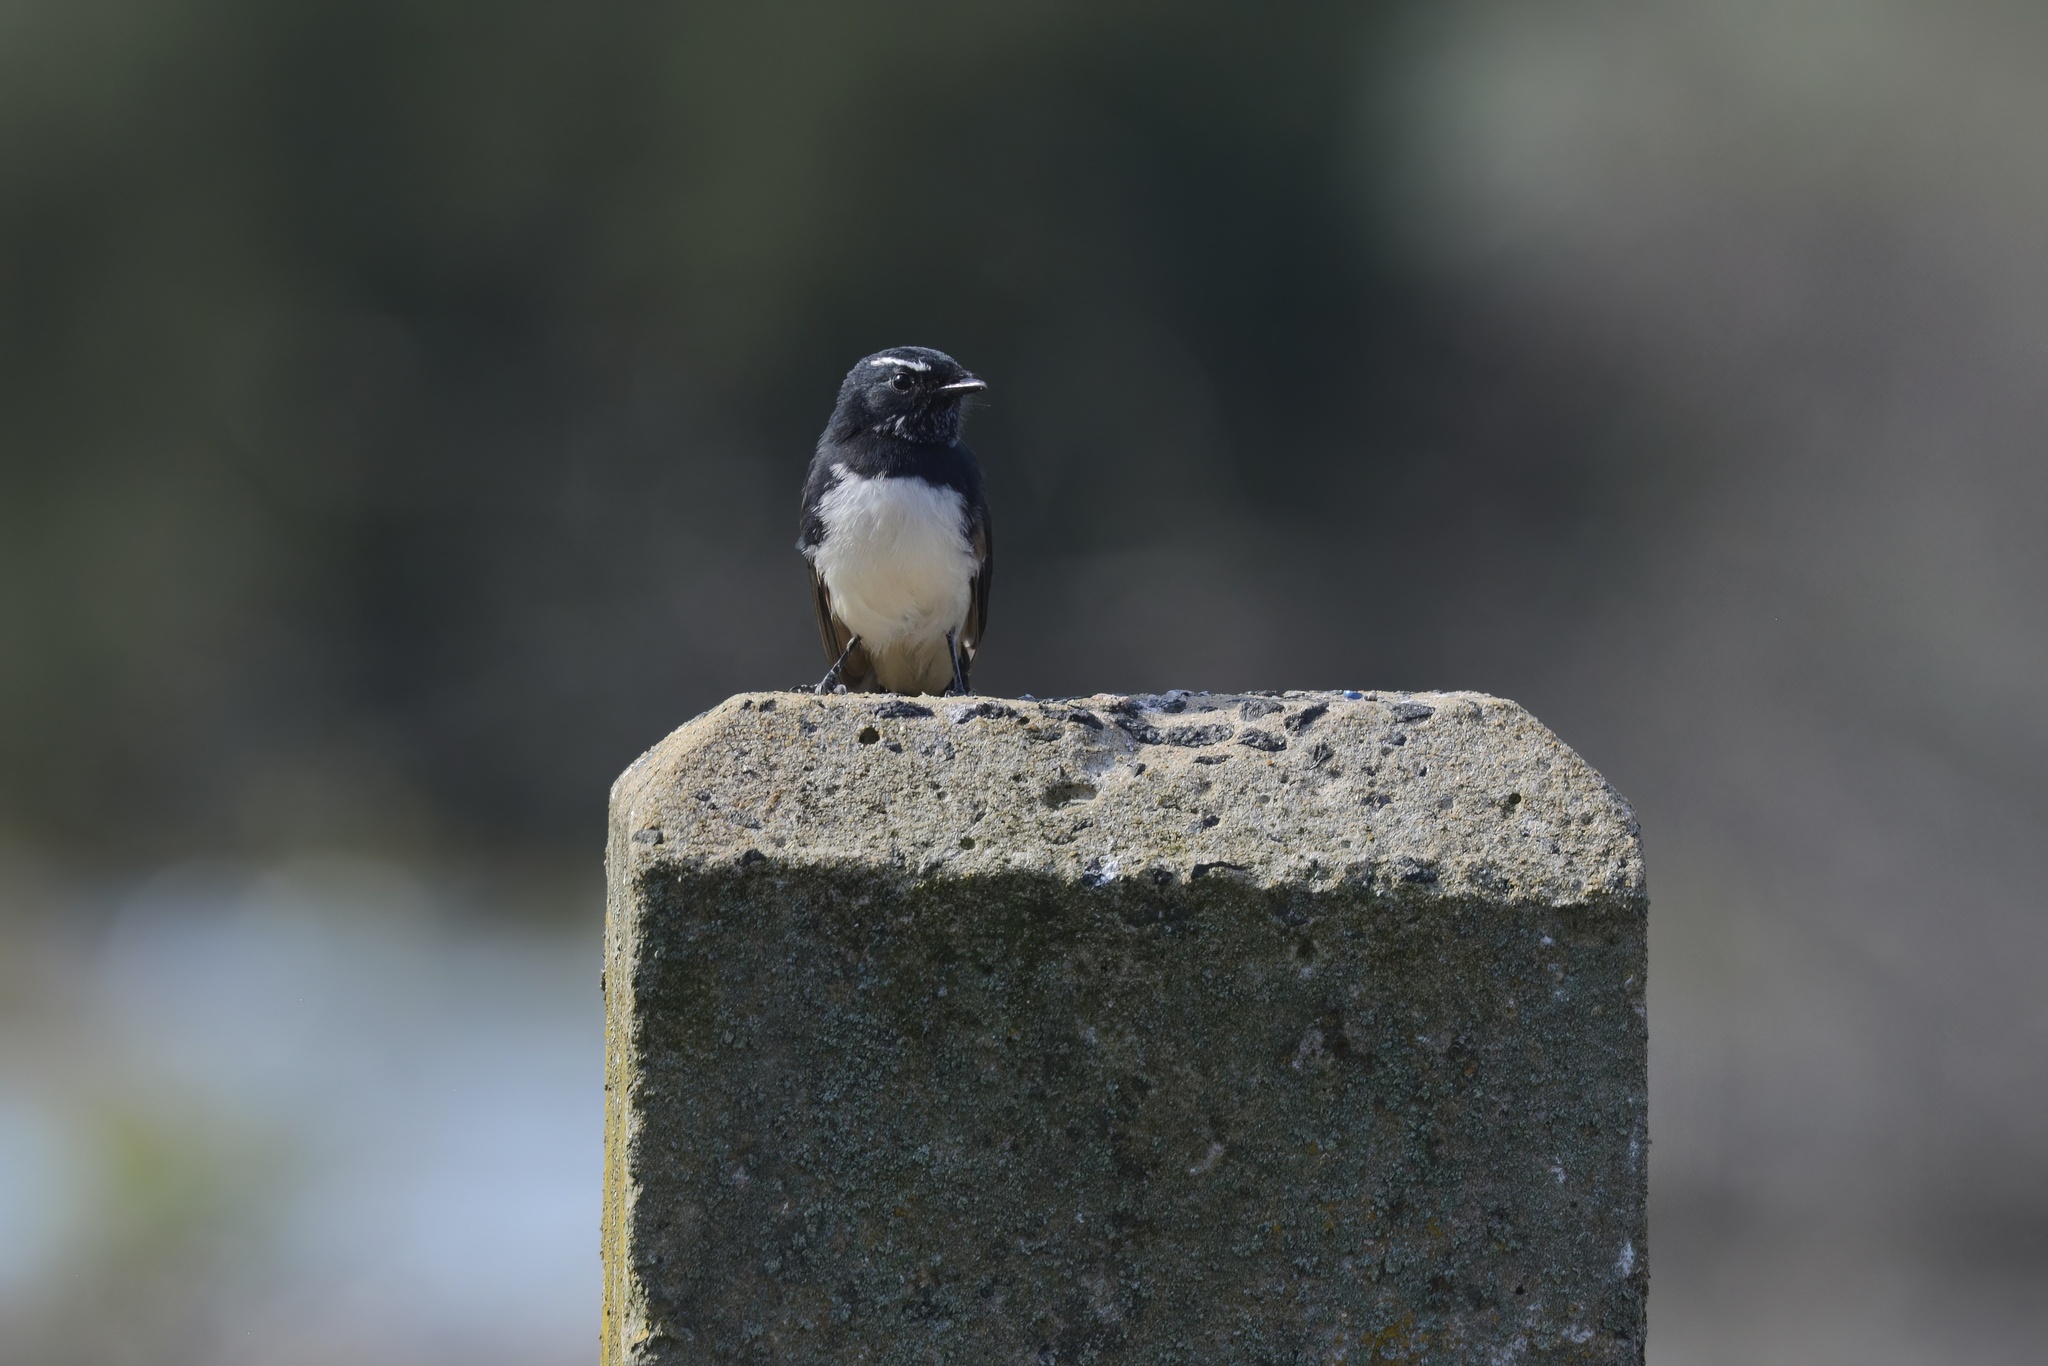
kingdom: Animalia
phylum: Chordata
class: Aves
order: Passeriformes
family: Rhipiduridae
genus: Rhipidura
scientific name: Rhipidura leucophrys
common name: Willie wagtail
